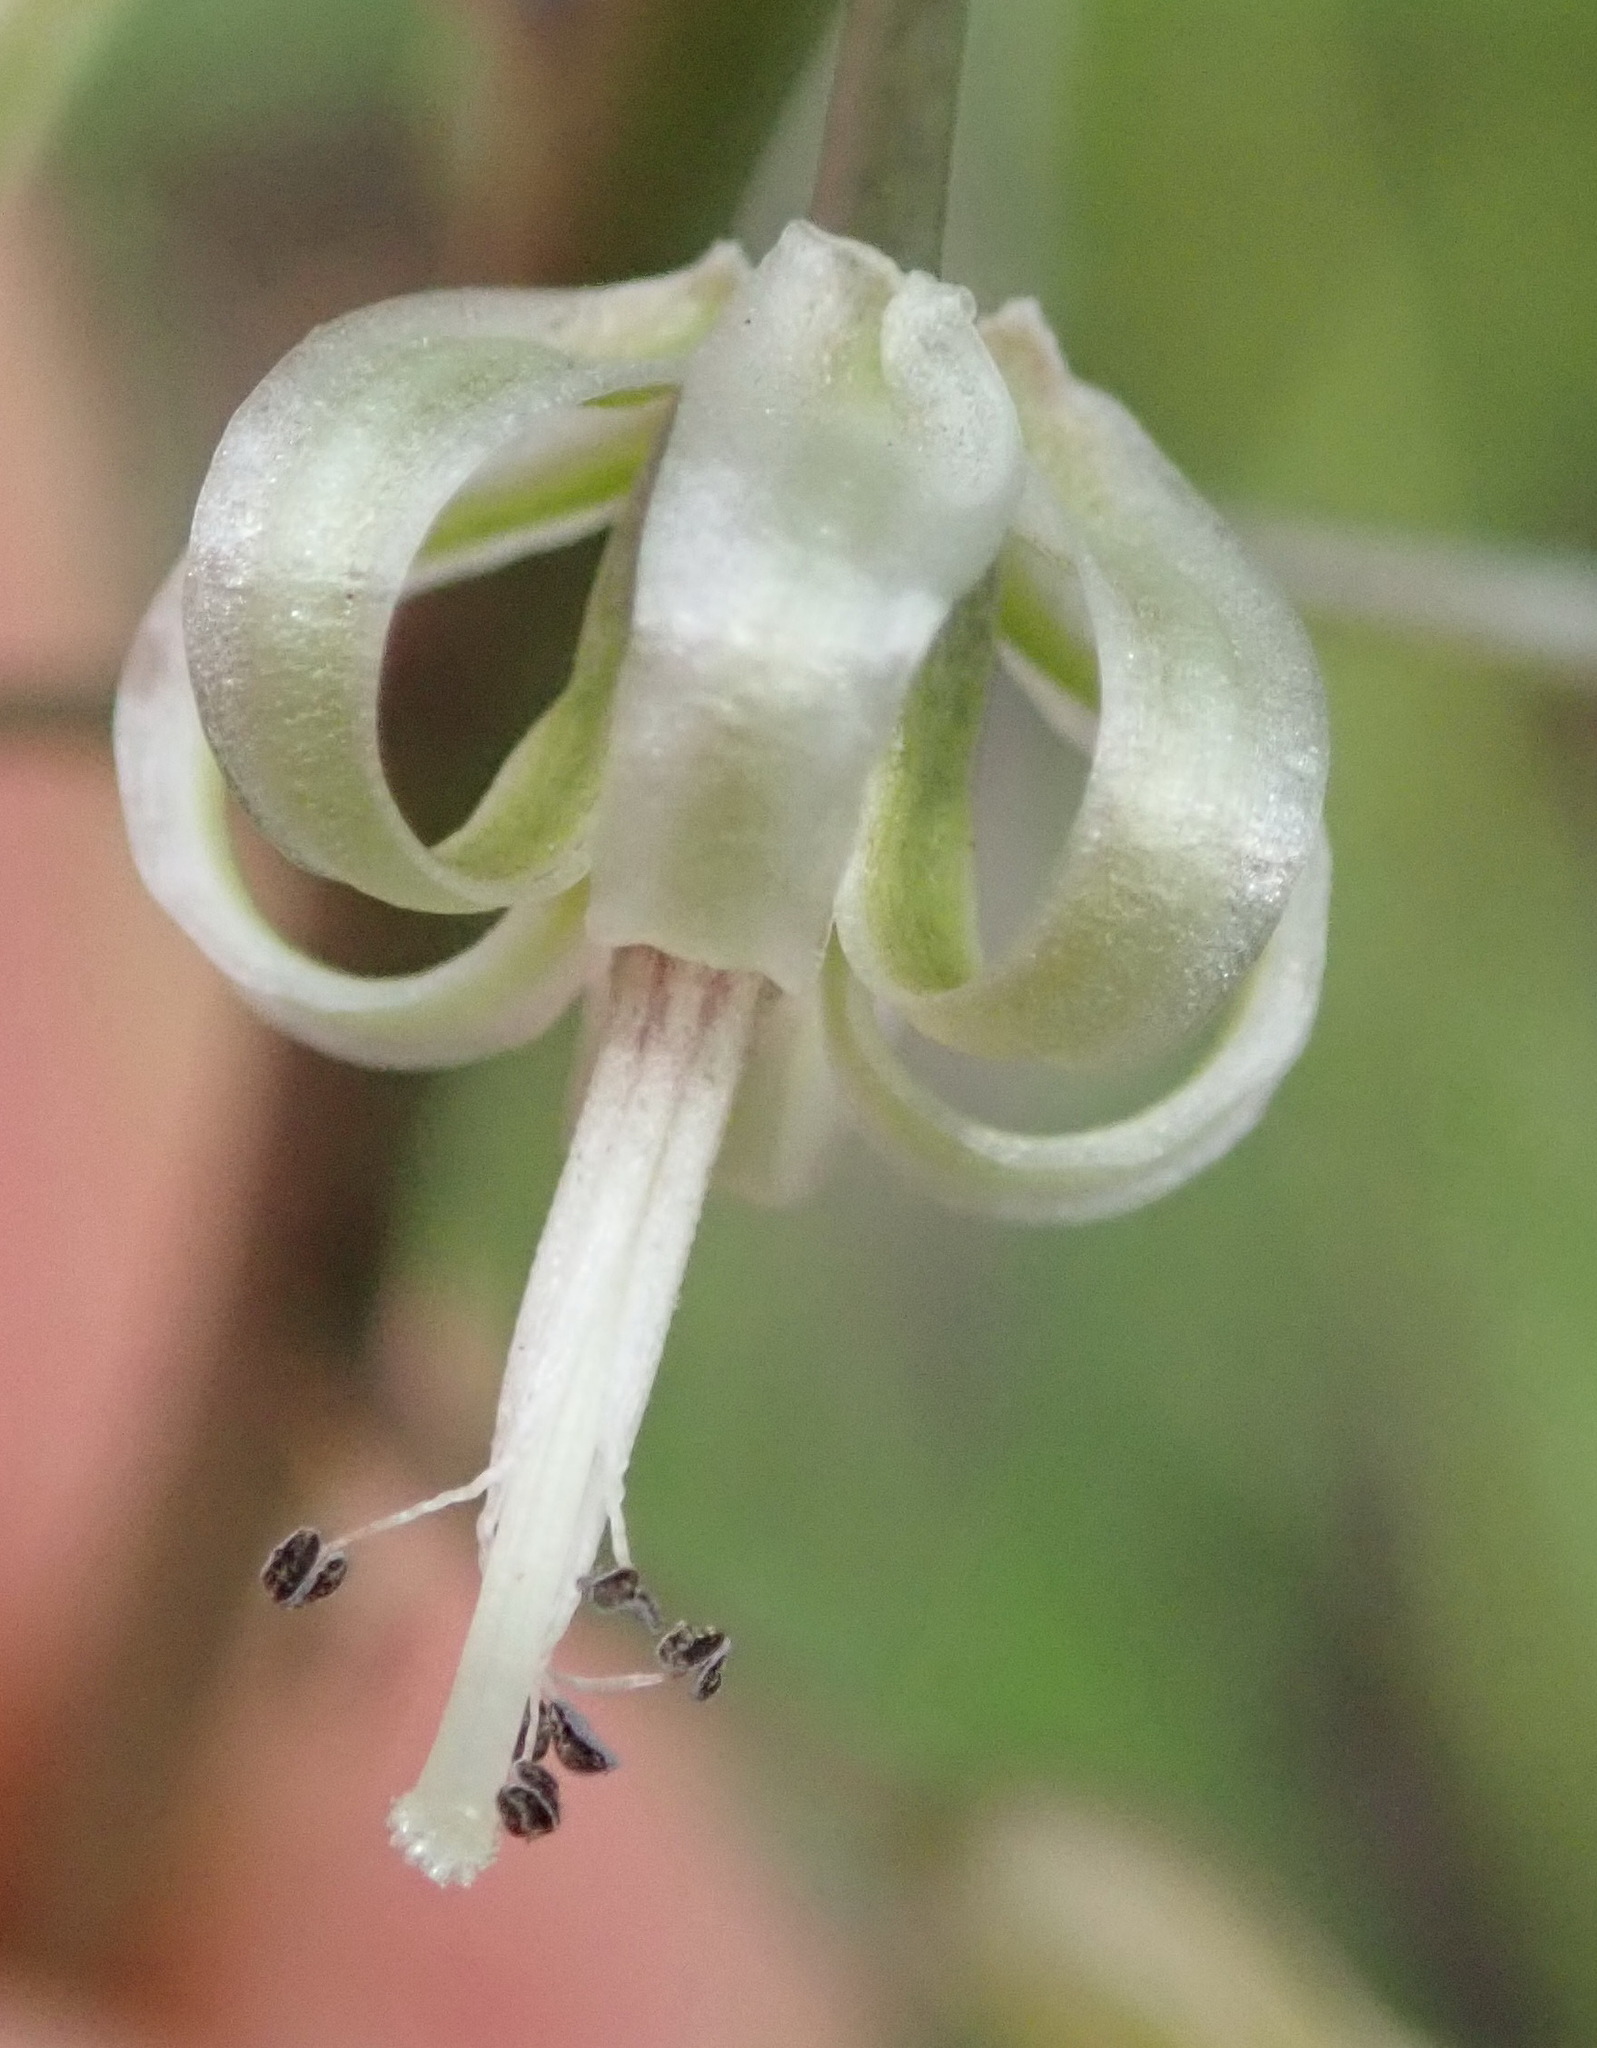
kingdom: Plantae
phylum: Tracheophyta
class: Liliopsida
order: Asparagales
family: Asparagaceae
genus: Drimia
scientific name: Drimia media
